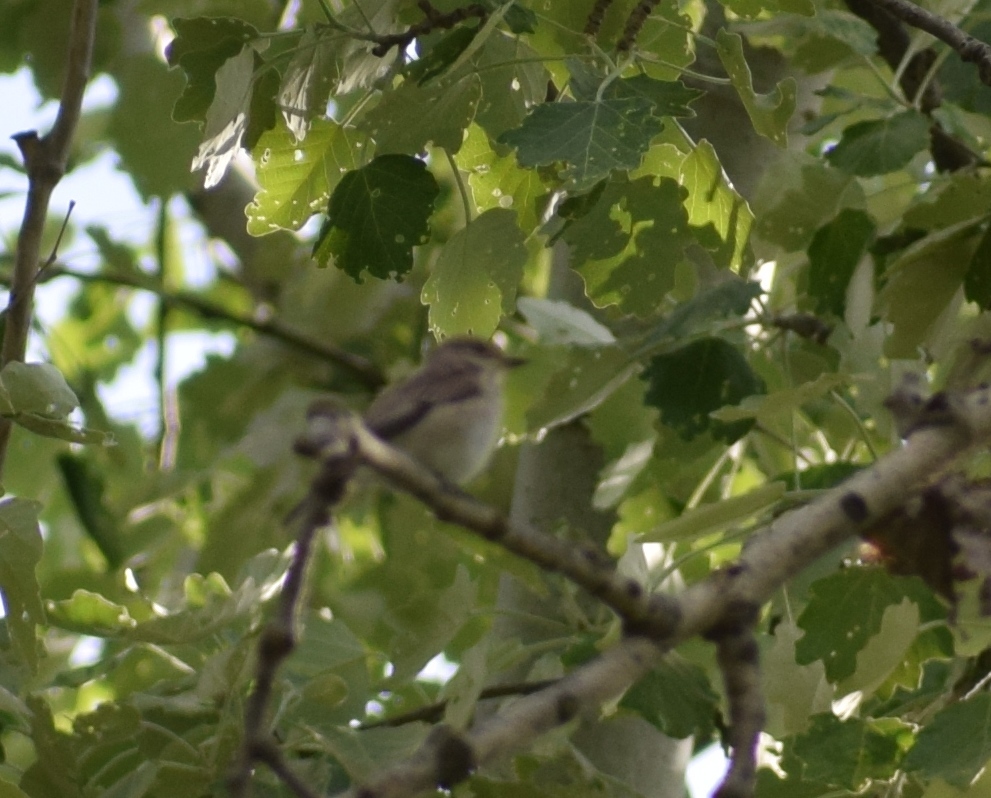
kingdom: Animalia
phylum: Chordata
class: Aves
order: Passeriformes
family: Muscicapidae
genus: Muscicapa
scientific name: Muscicapa striata
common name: Spotted flycatcher
